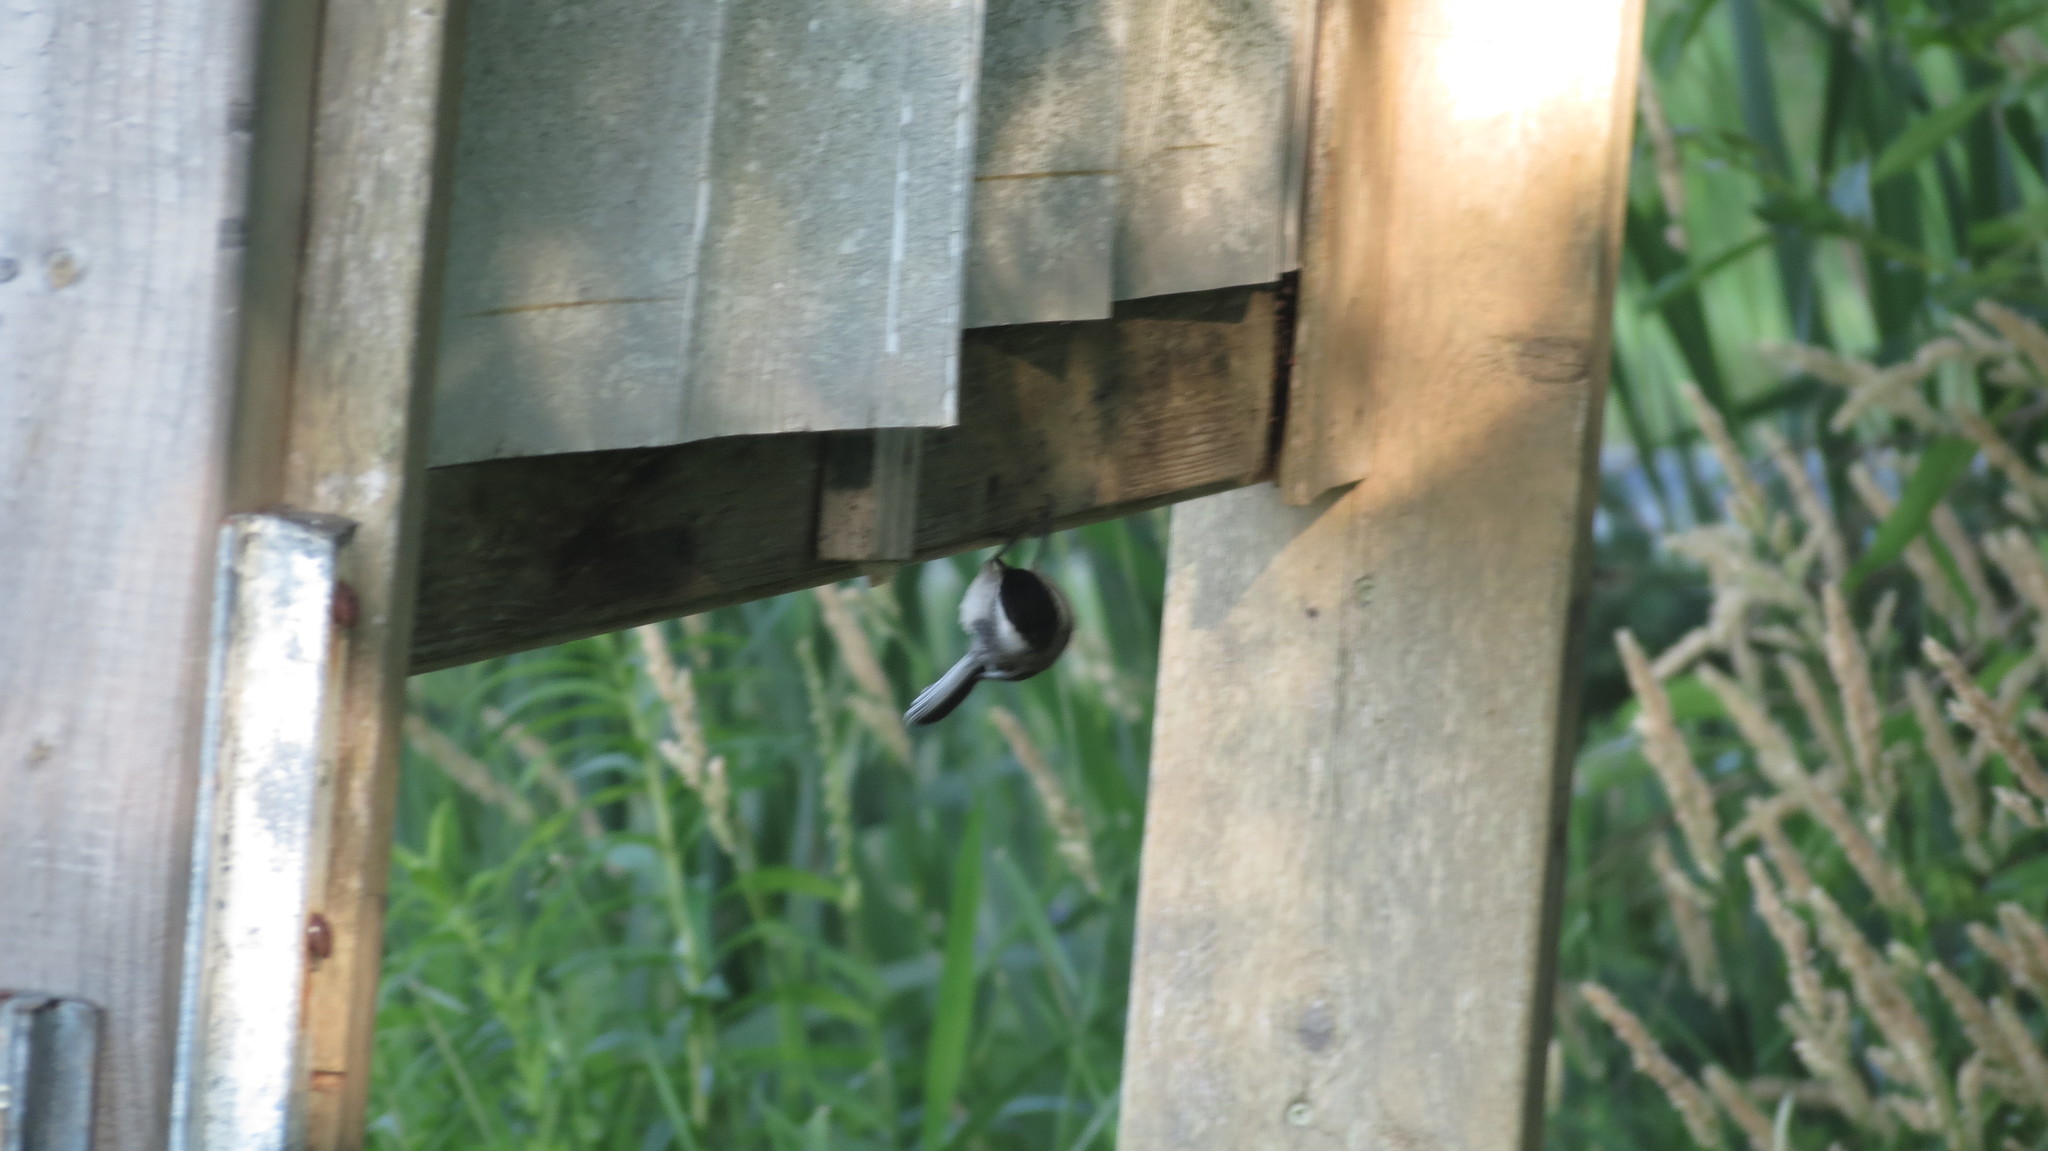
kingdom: Animalia
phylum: Chordata
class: Aves
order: Passeriformes
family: Paridae
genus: Poecile
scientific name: Poecile atricapillus
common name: Black-capped chickadee
